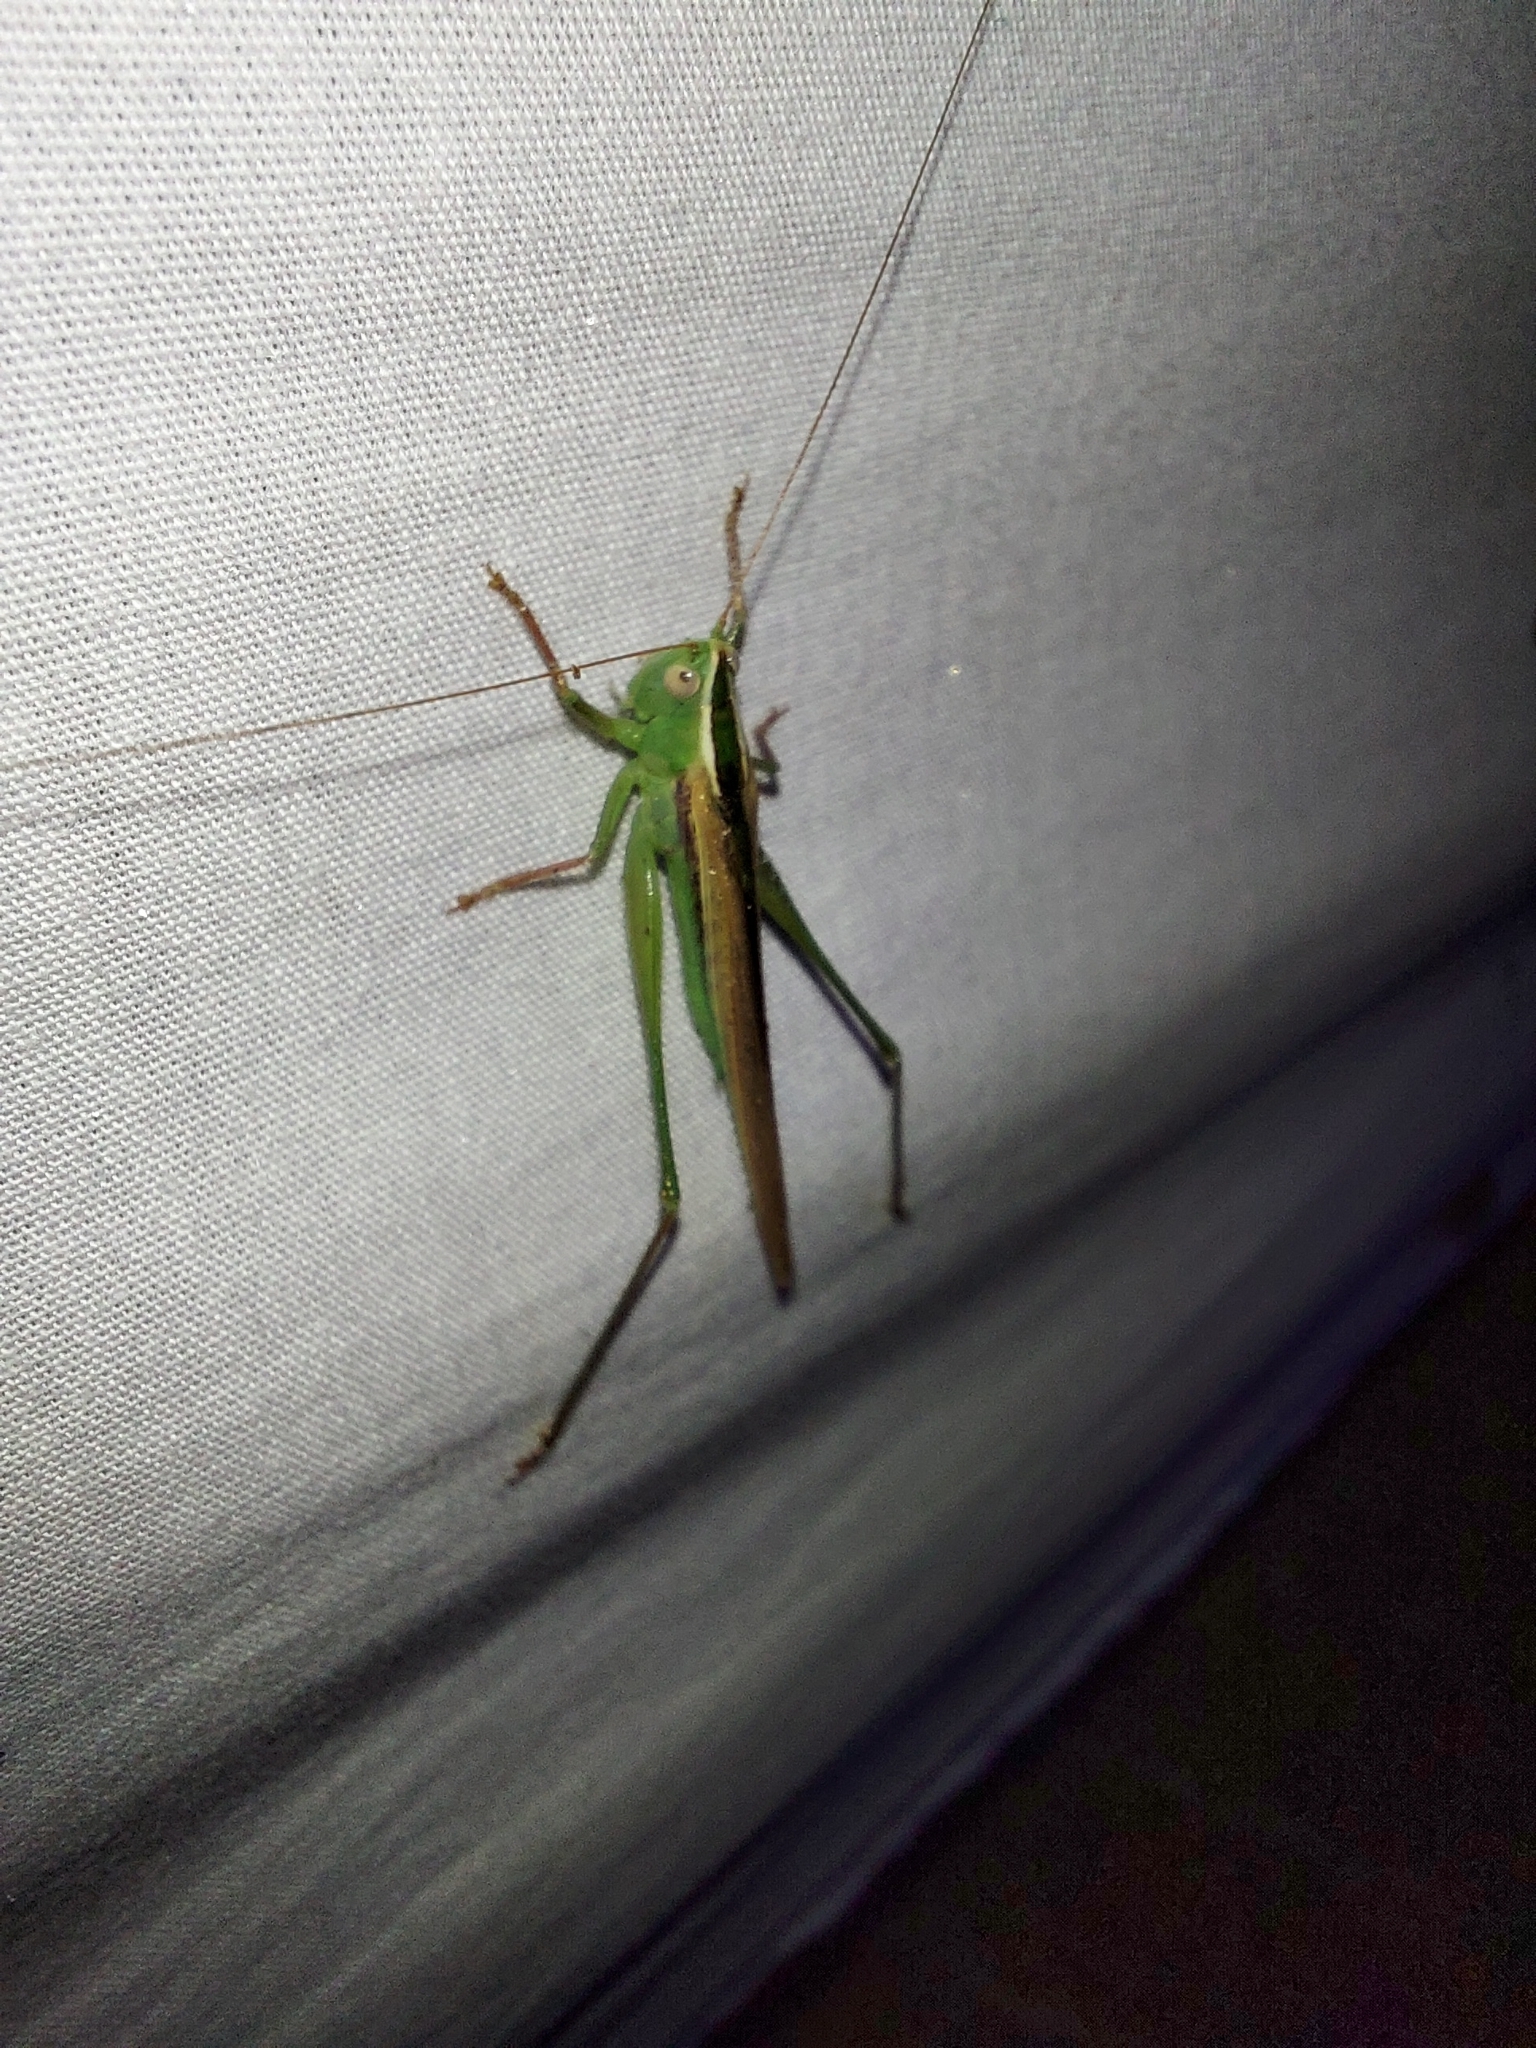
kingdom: Animalia
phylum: Arthropoda
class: Insecta
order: Orthoptera
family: Tettigoniidae
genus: Conocephalus
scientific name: Conocephalus upoluensis
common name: Upolu meadow katydid
